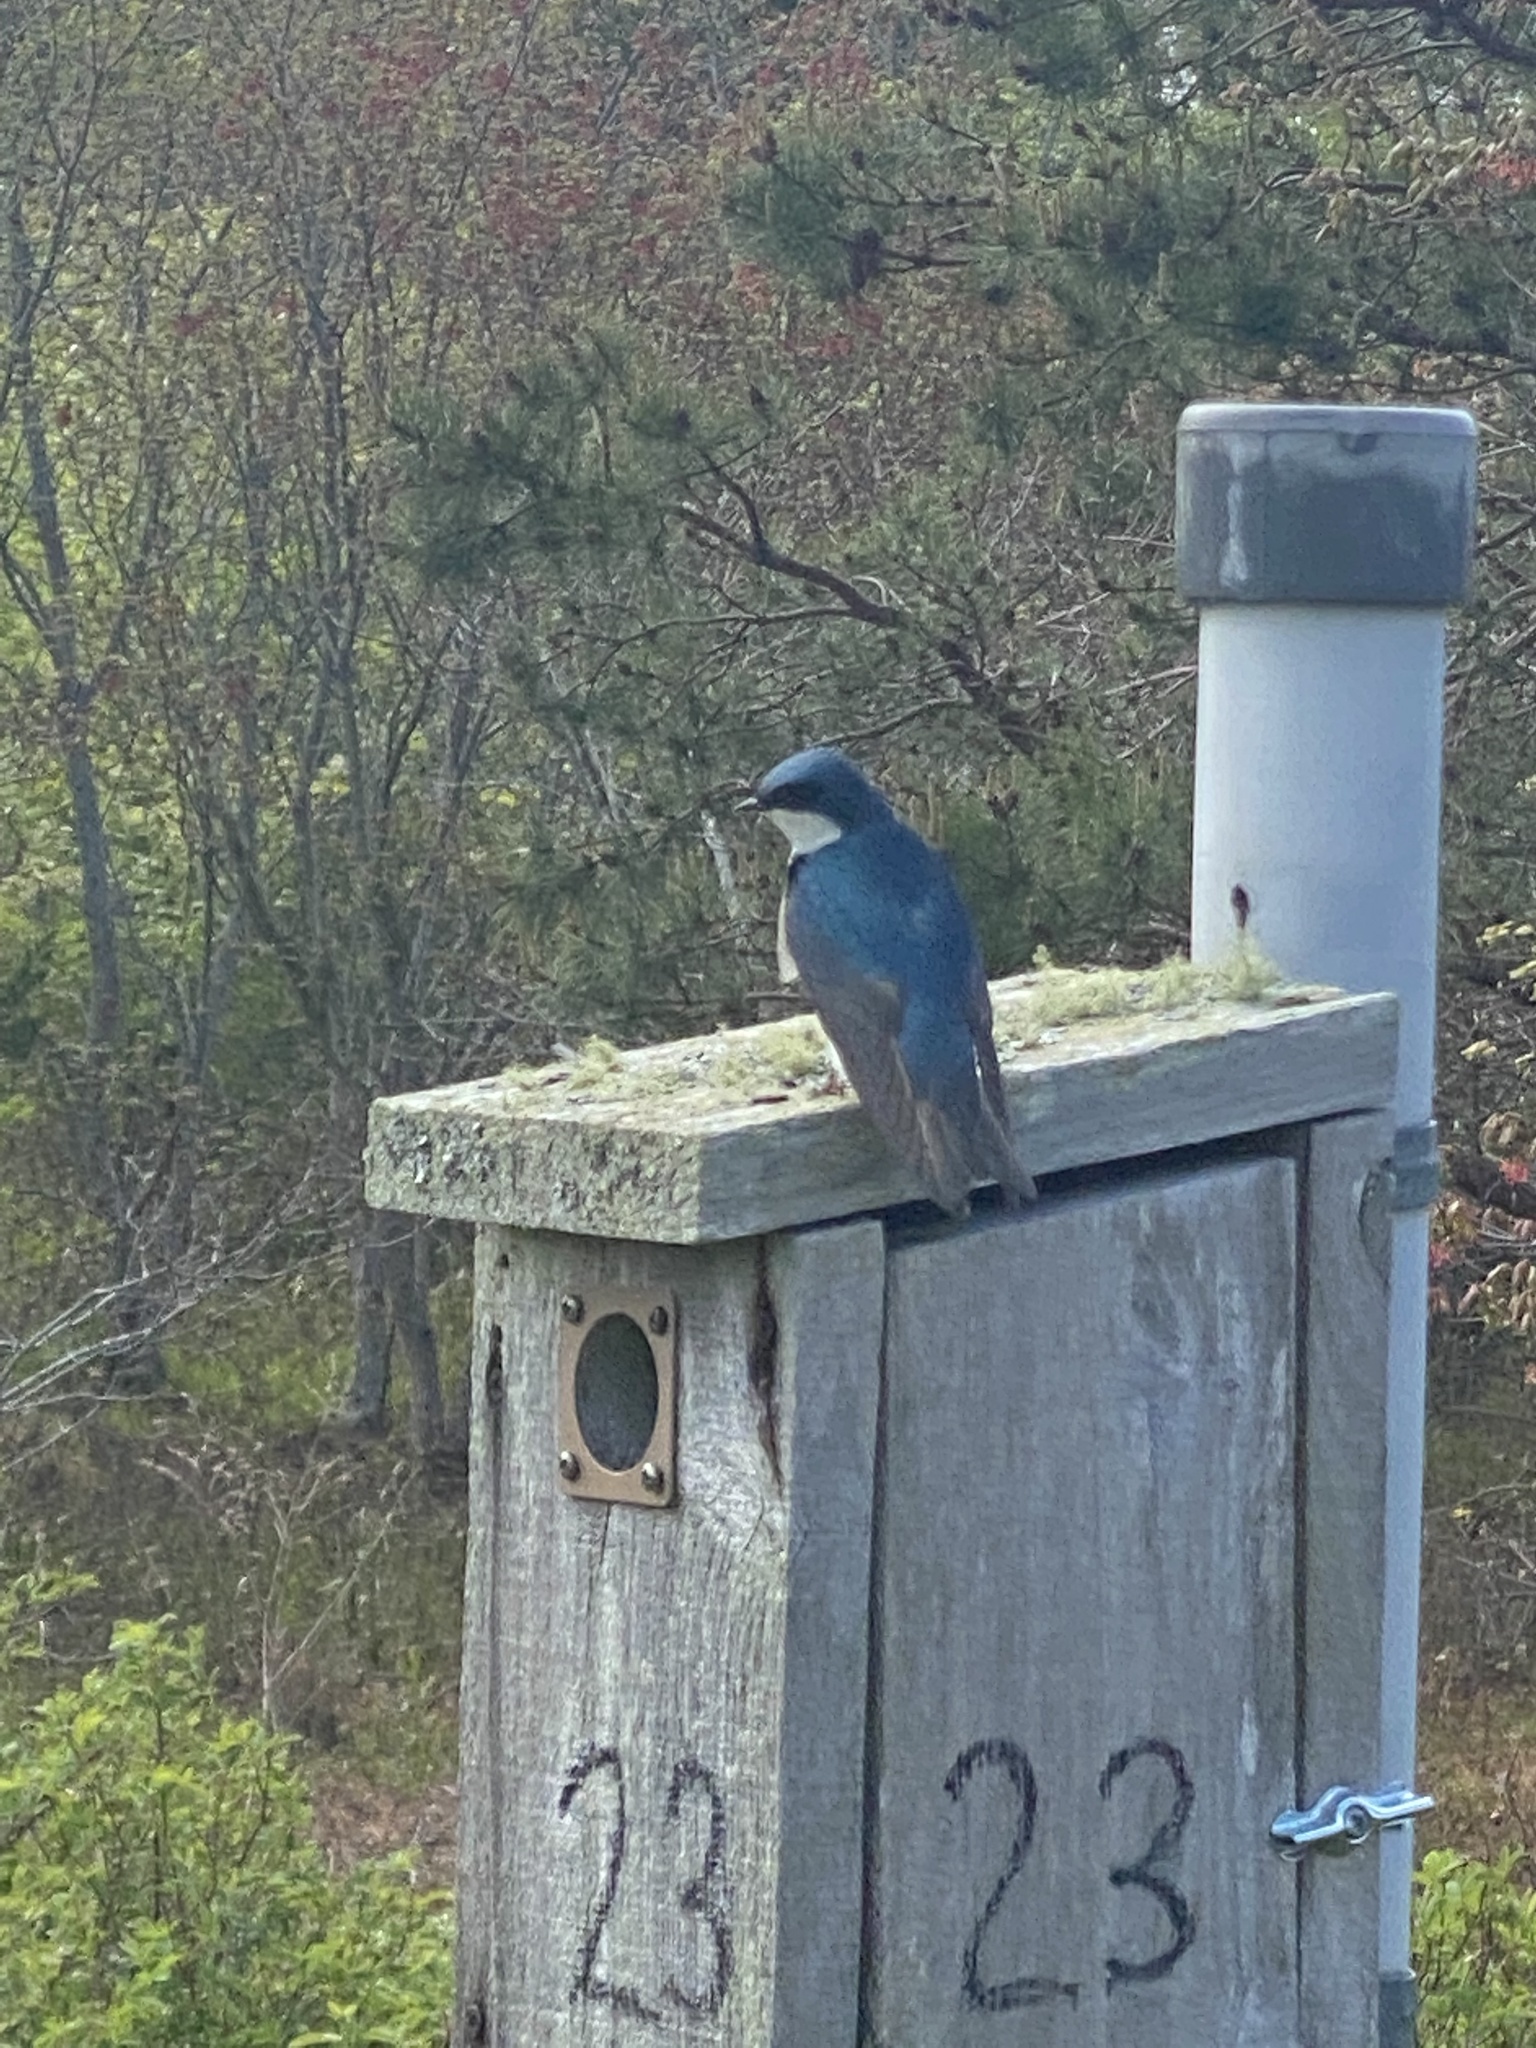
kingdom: Animalia
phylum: Chordata
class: Aves
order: Passeriformes
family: Hirundinidae
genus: Tachycineta
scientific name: Tachycineta bicolor
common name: Tree swallow
